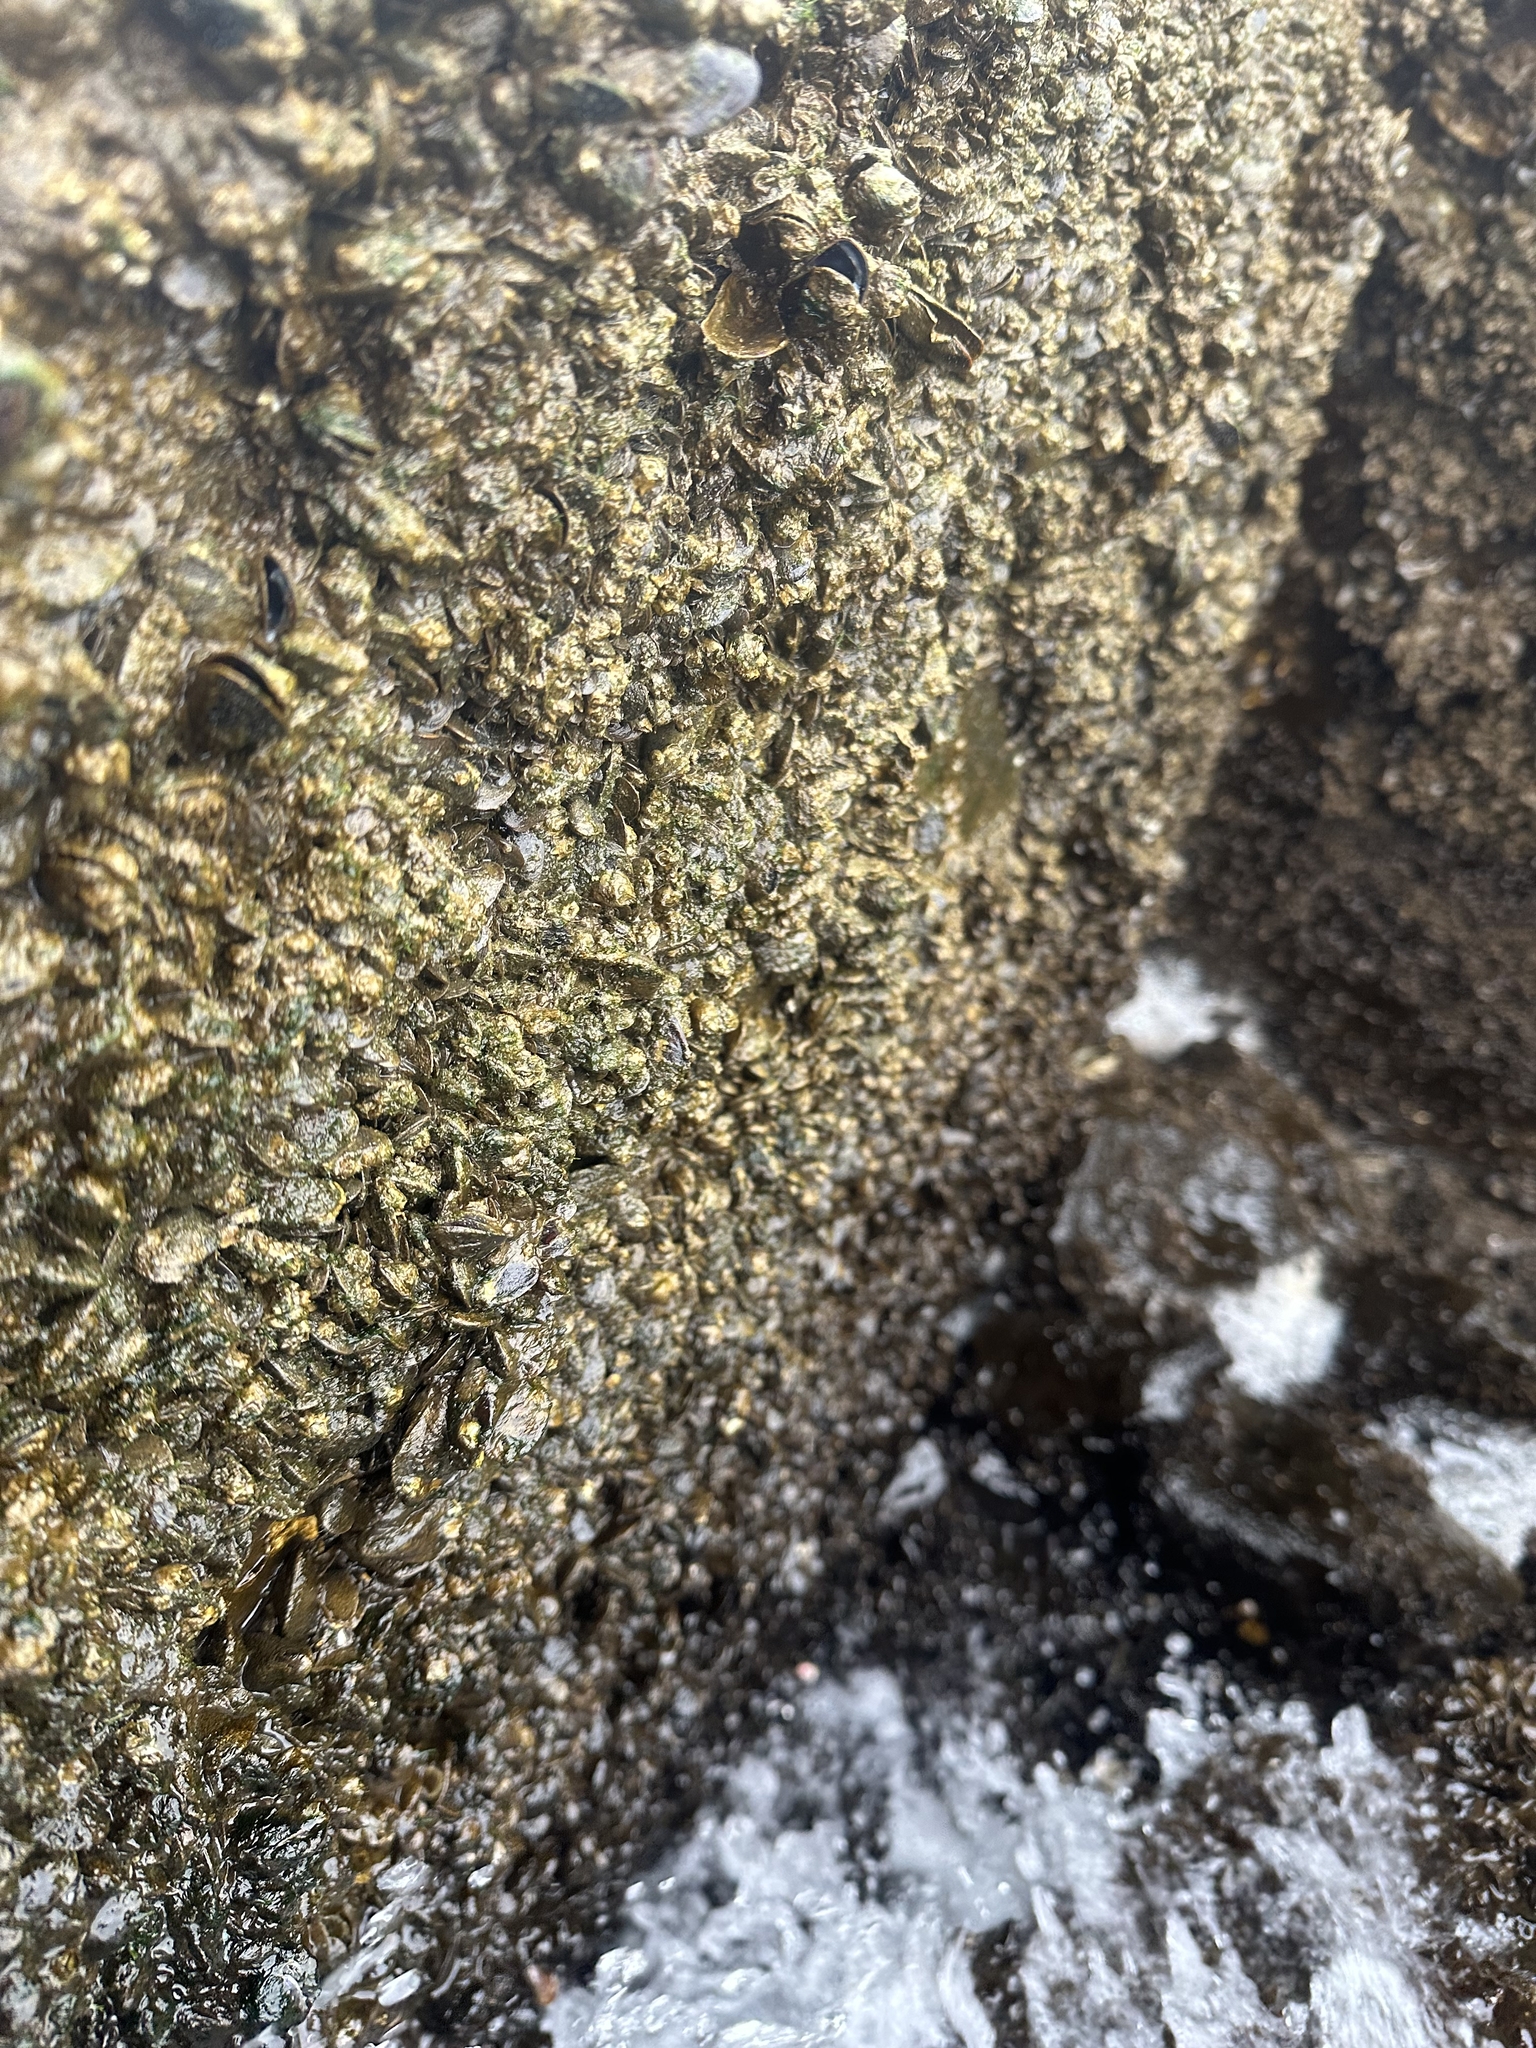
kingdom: Animalia
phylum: Mollusca
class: Bivalvia
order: Mytilida
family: Mytilidae
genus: Xenostrobus
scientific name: Xenostrobus securis
